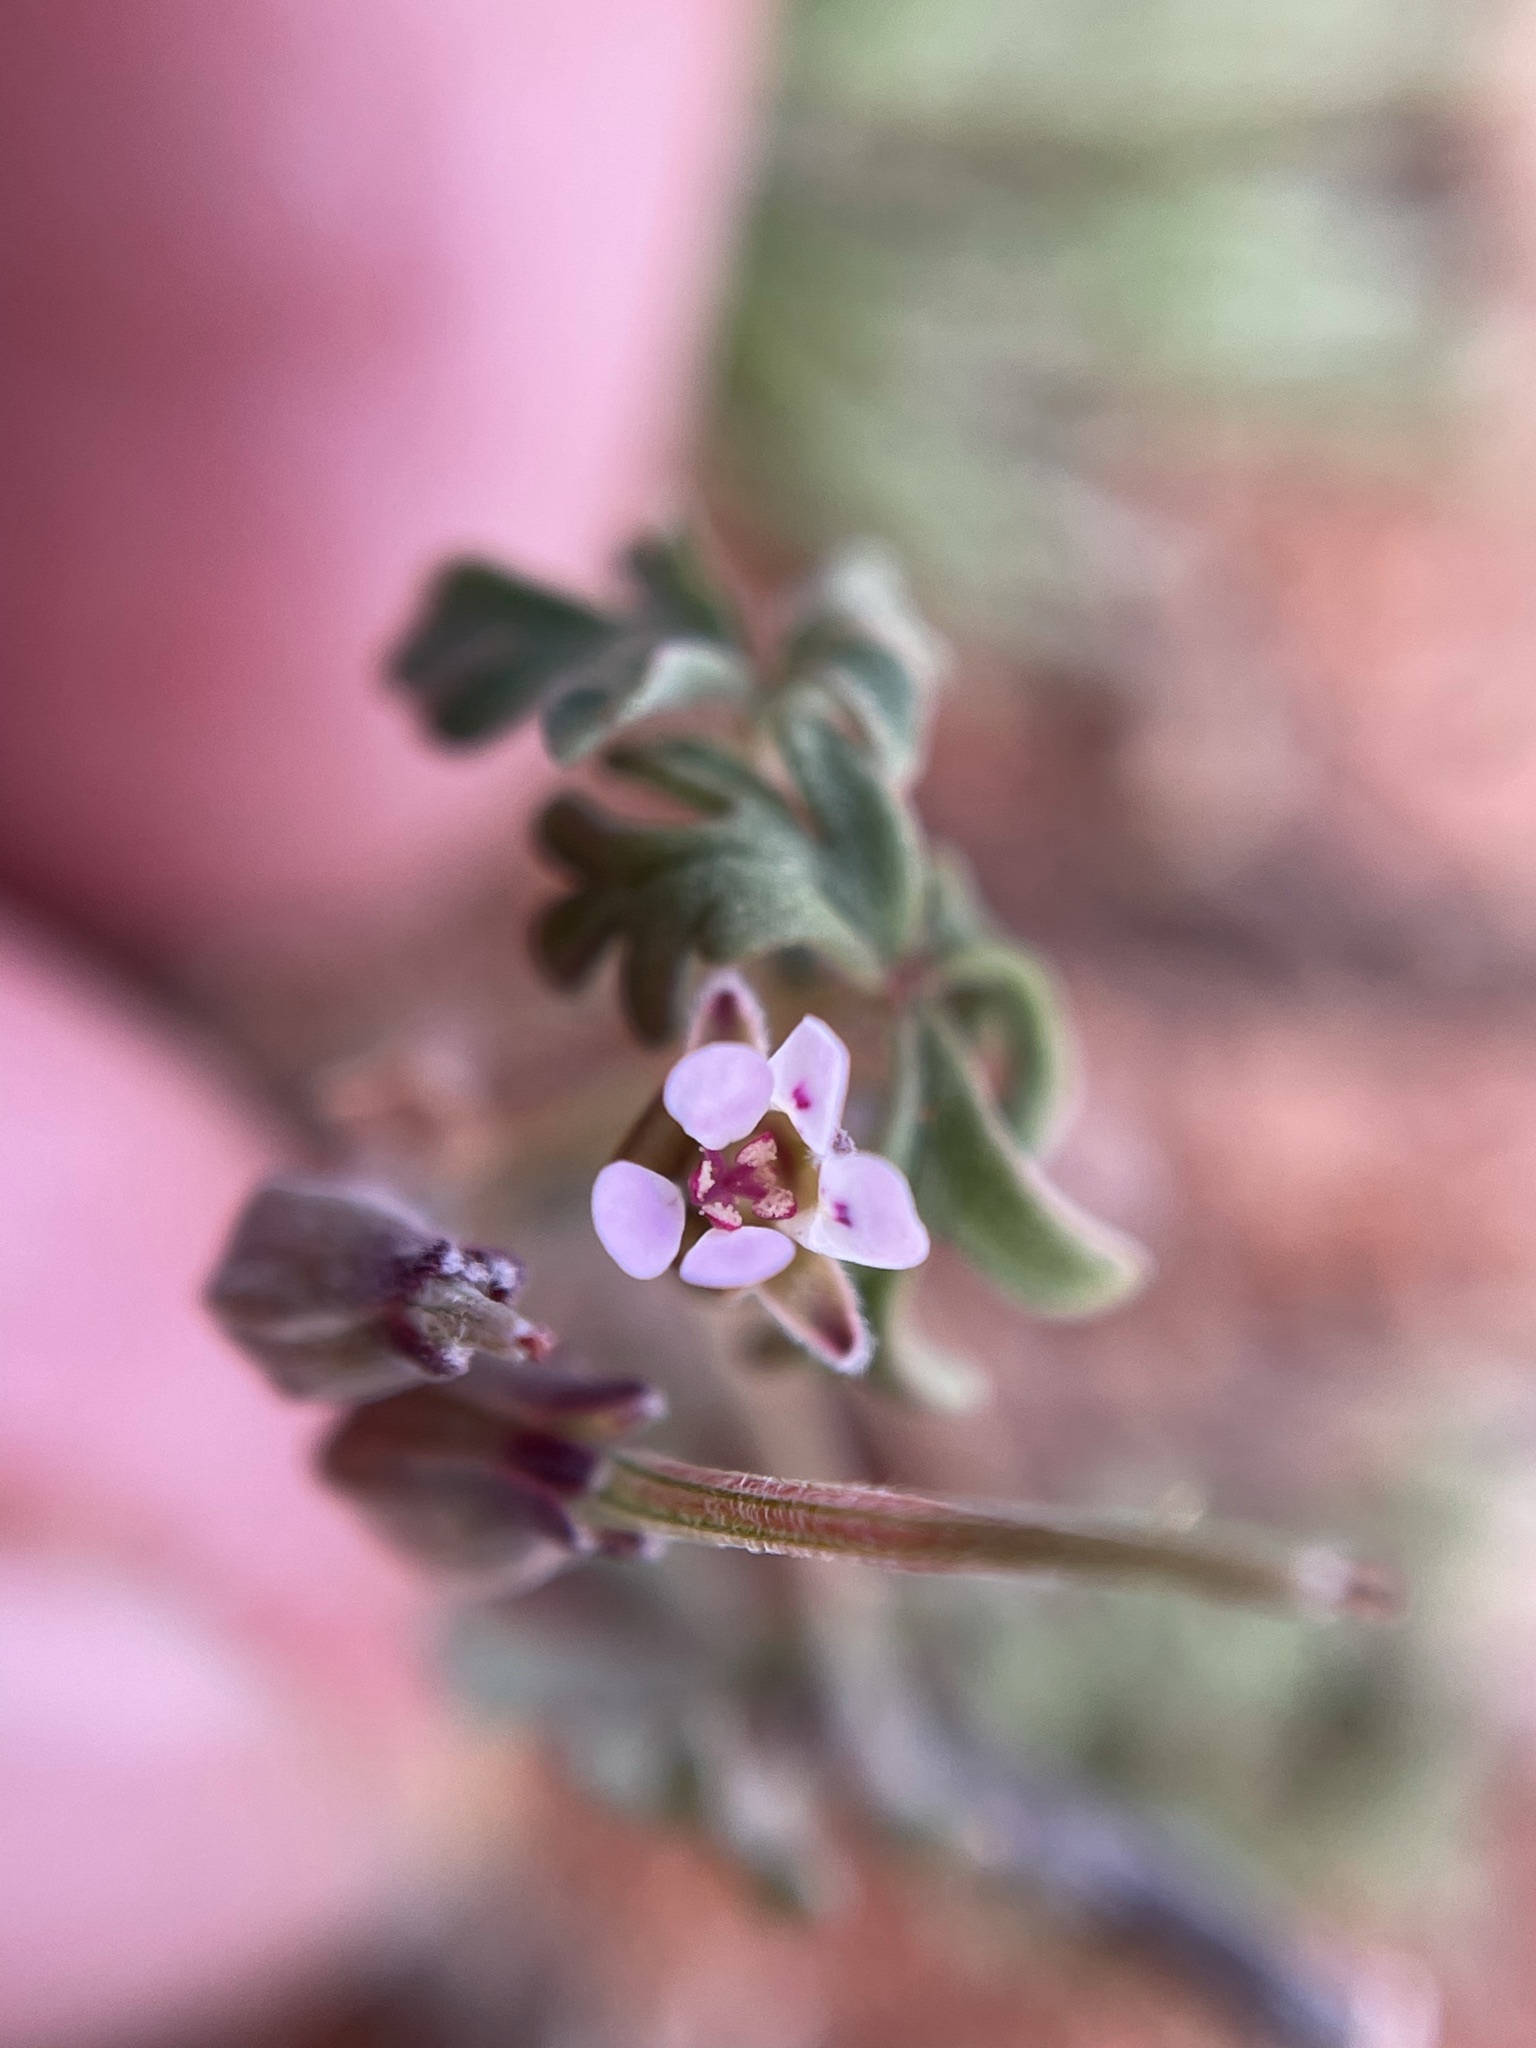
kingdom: Plantae
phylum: Tracheophyta
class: Magnoliopsida
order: Geraniales
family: Geraniaceae
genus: Pelargonium
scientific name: Pelargonium redactum
